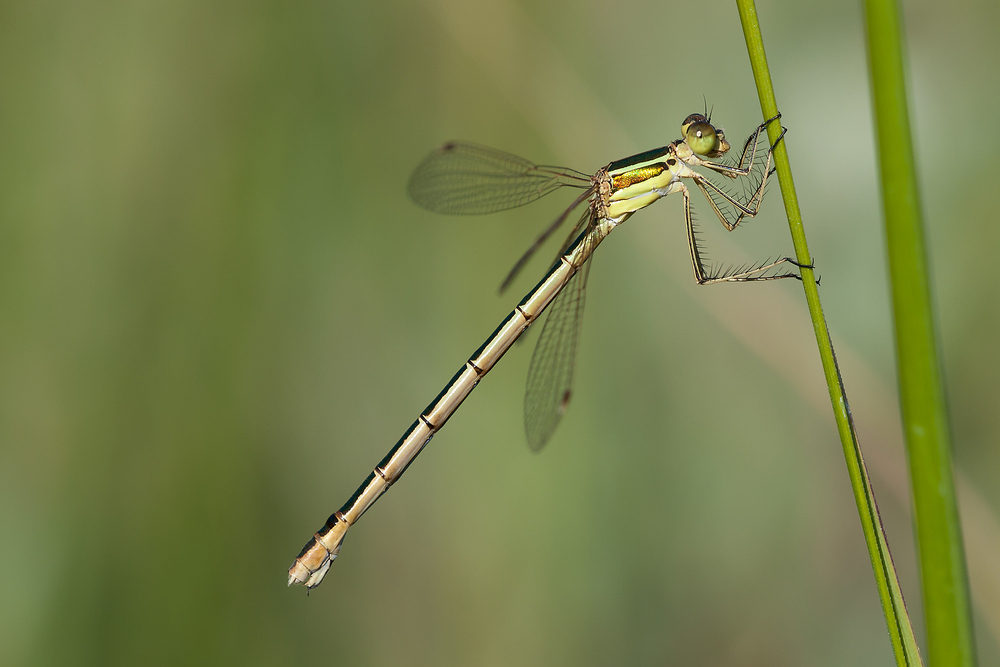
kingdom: Animalia
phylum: Arthropoda
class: Insecta
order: Odonata
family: Lestidae
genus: Lestes
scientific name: Lestes barbarus
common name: Migrant spreadwing
